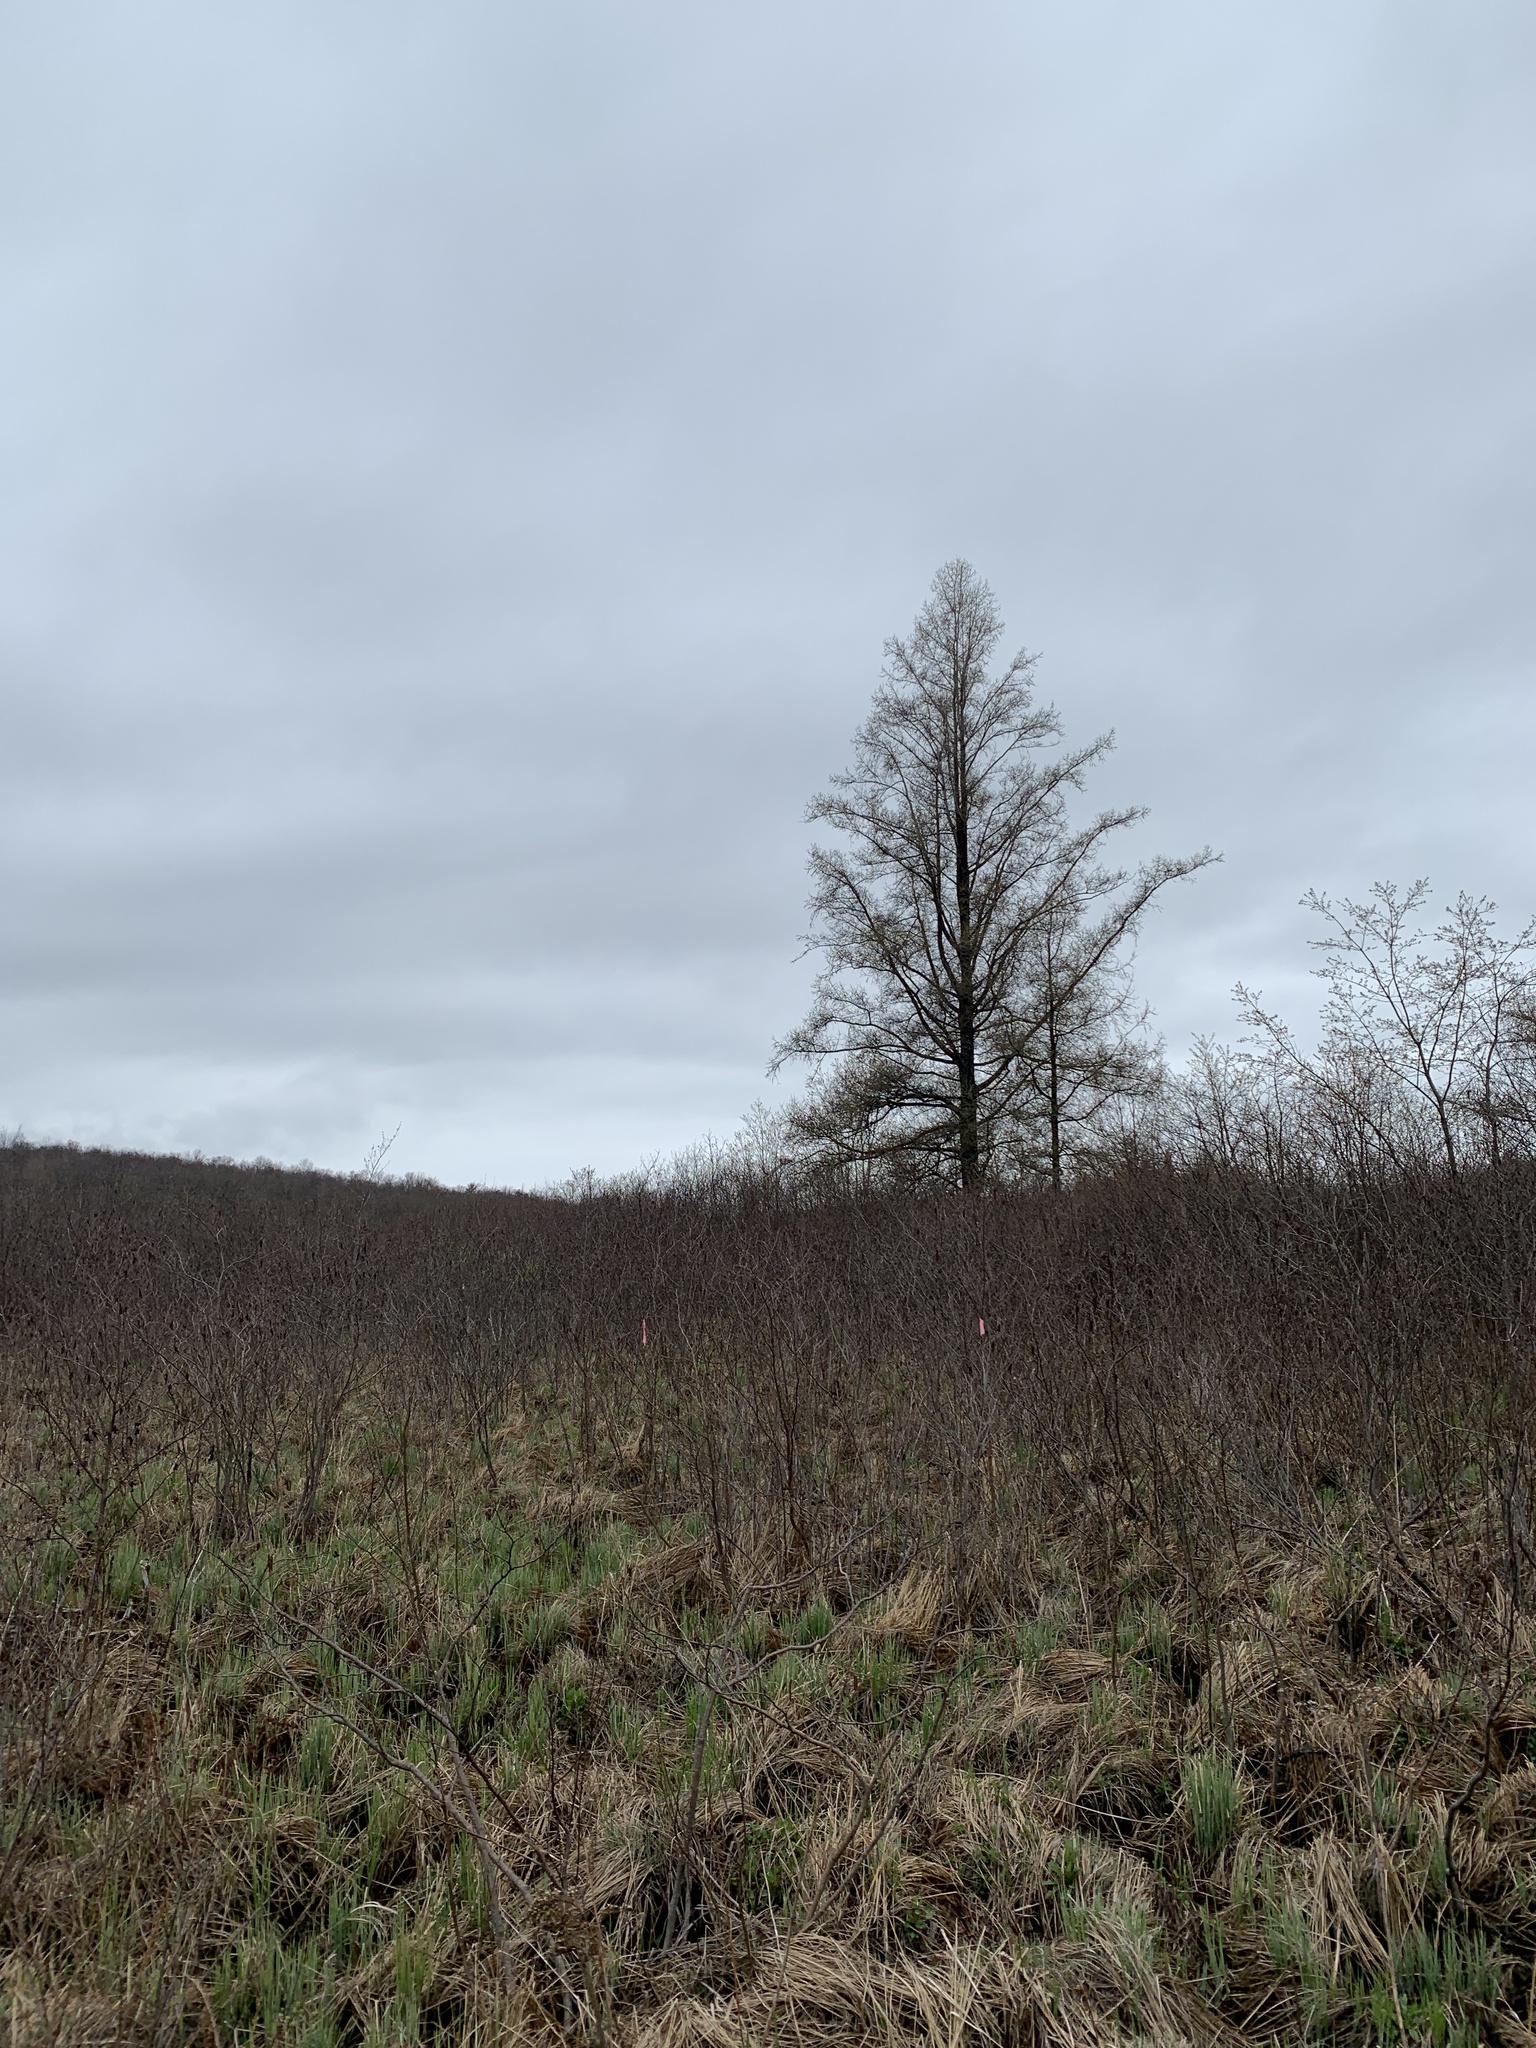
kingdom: Plantae
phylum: Tracheophyta
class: Pinopsida
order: Pinales
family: Pinaceae
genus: Larix
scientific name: Larix laricina
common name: American larch
